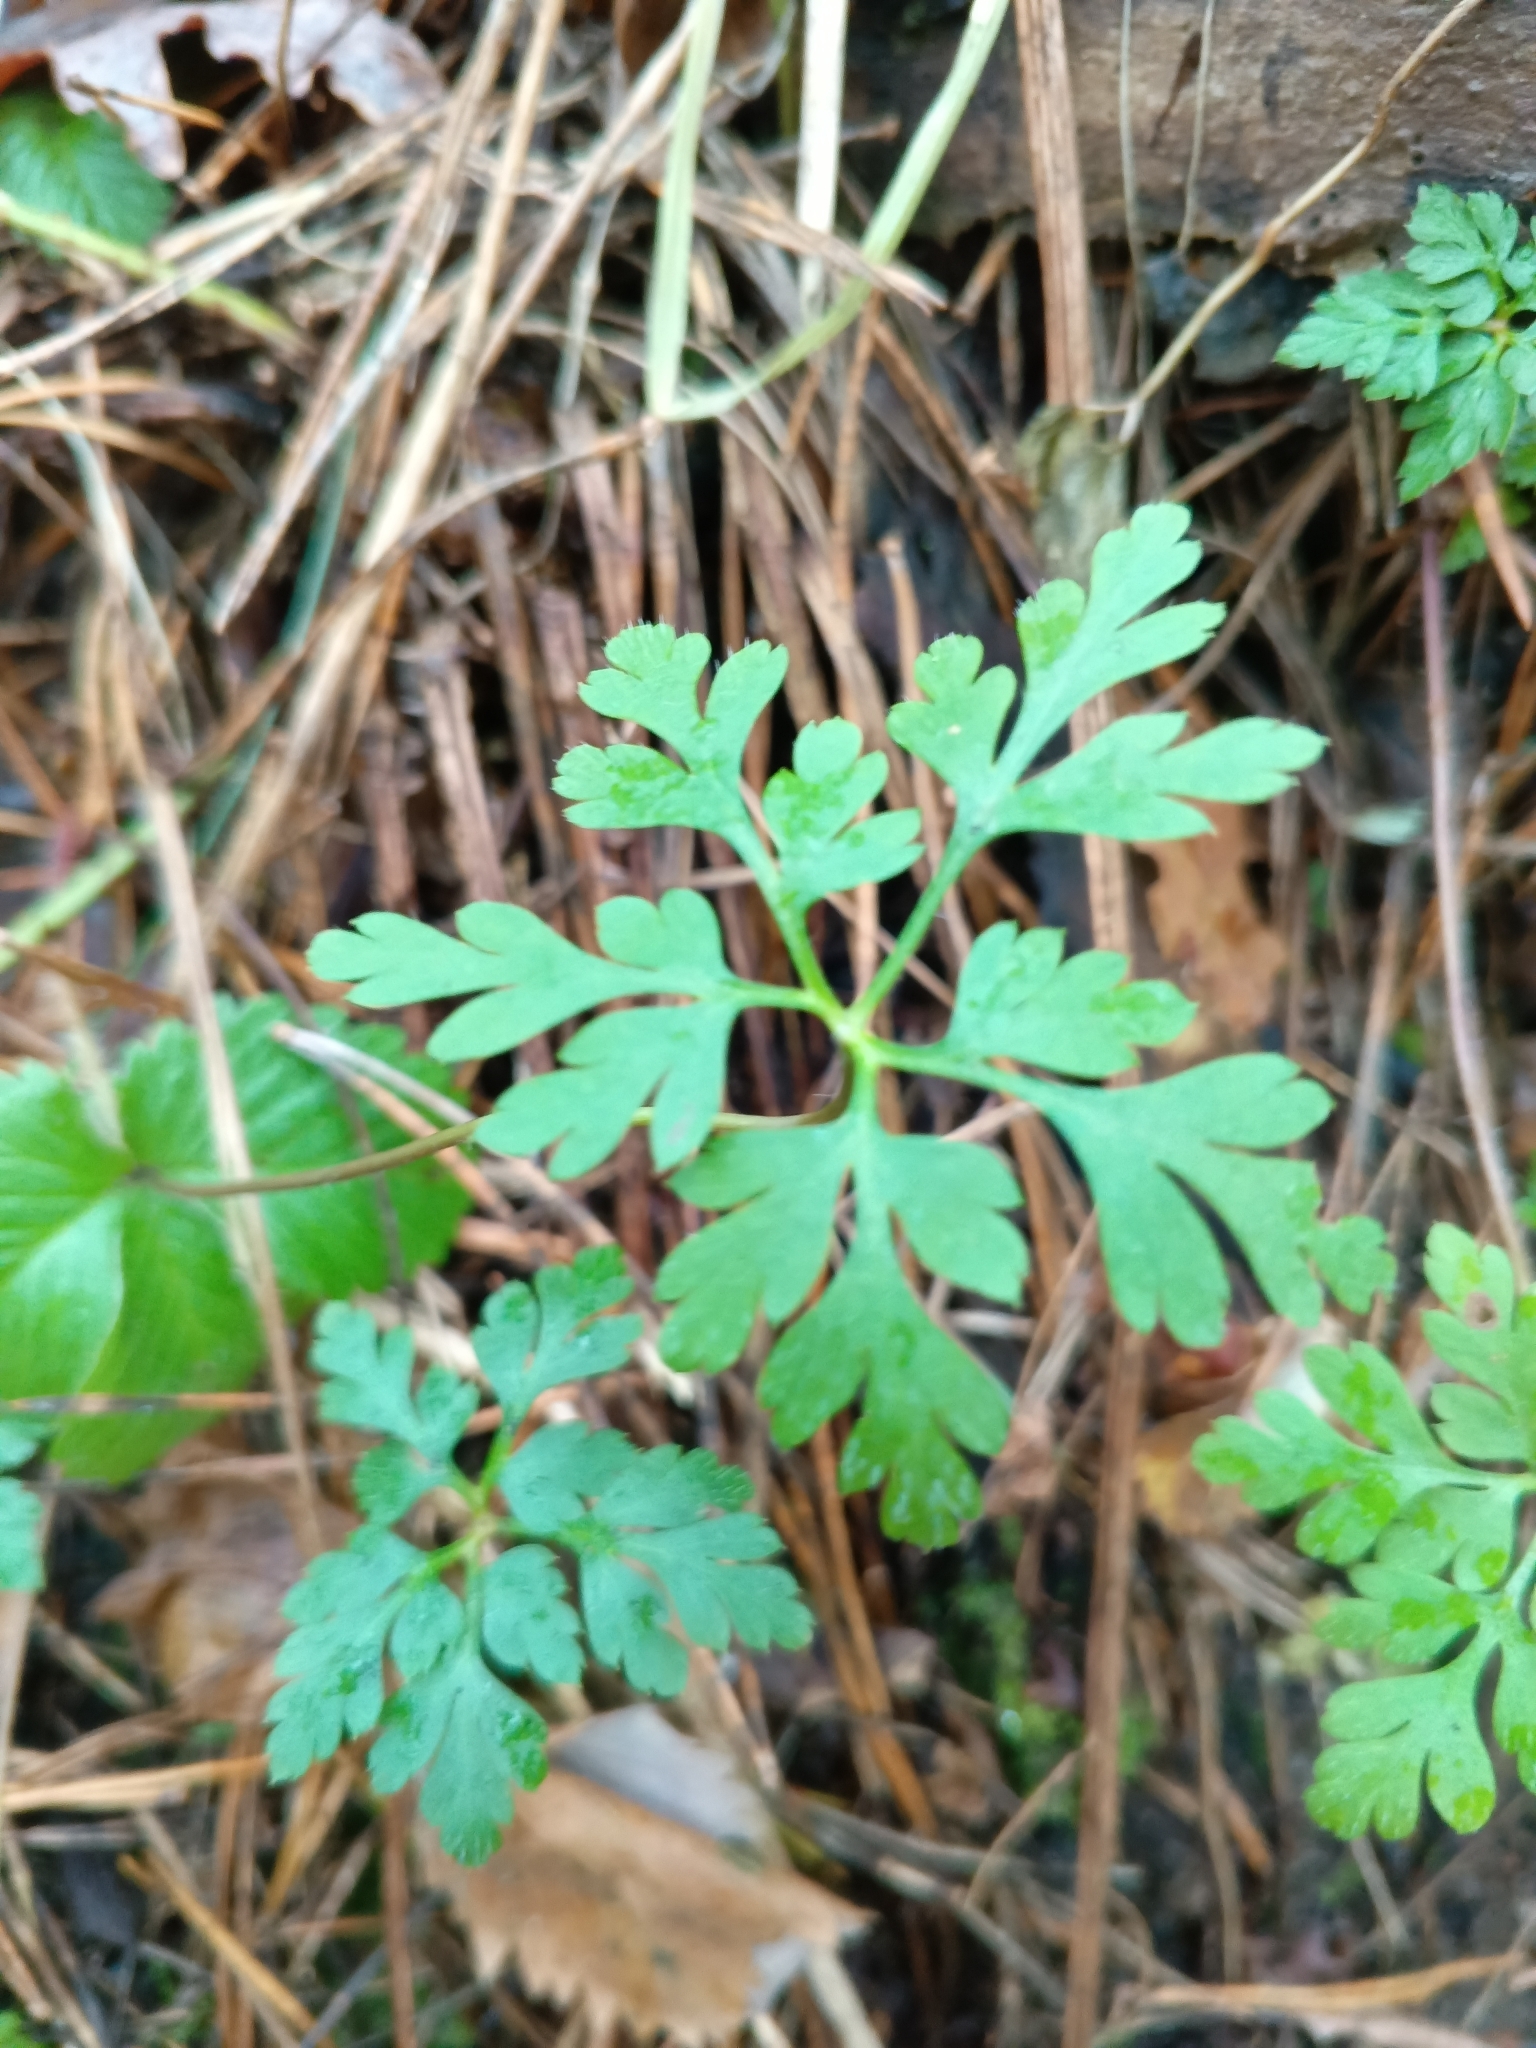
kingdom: Plantae
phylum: Tracheophyta
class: Magnoliopsida
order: Geraniales
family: Geraniaceae
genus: Geranium
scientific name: Geranium robertianum
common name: Herb-robert
